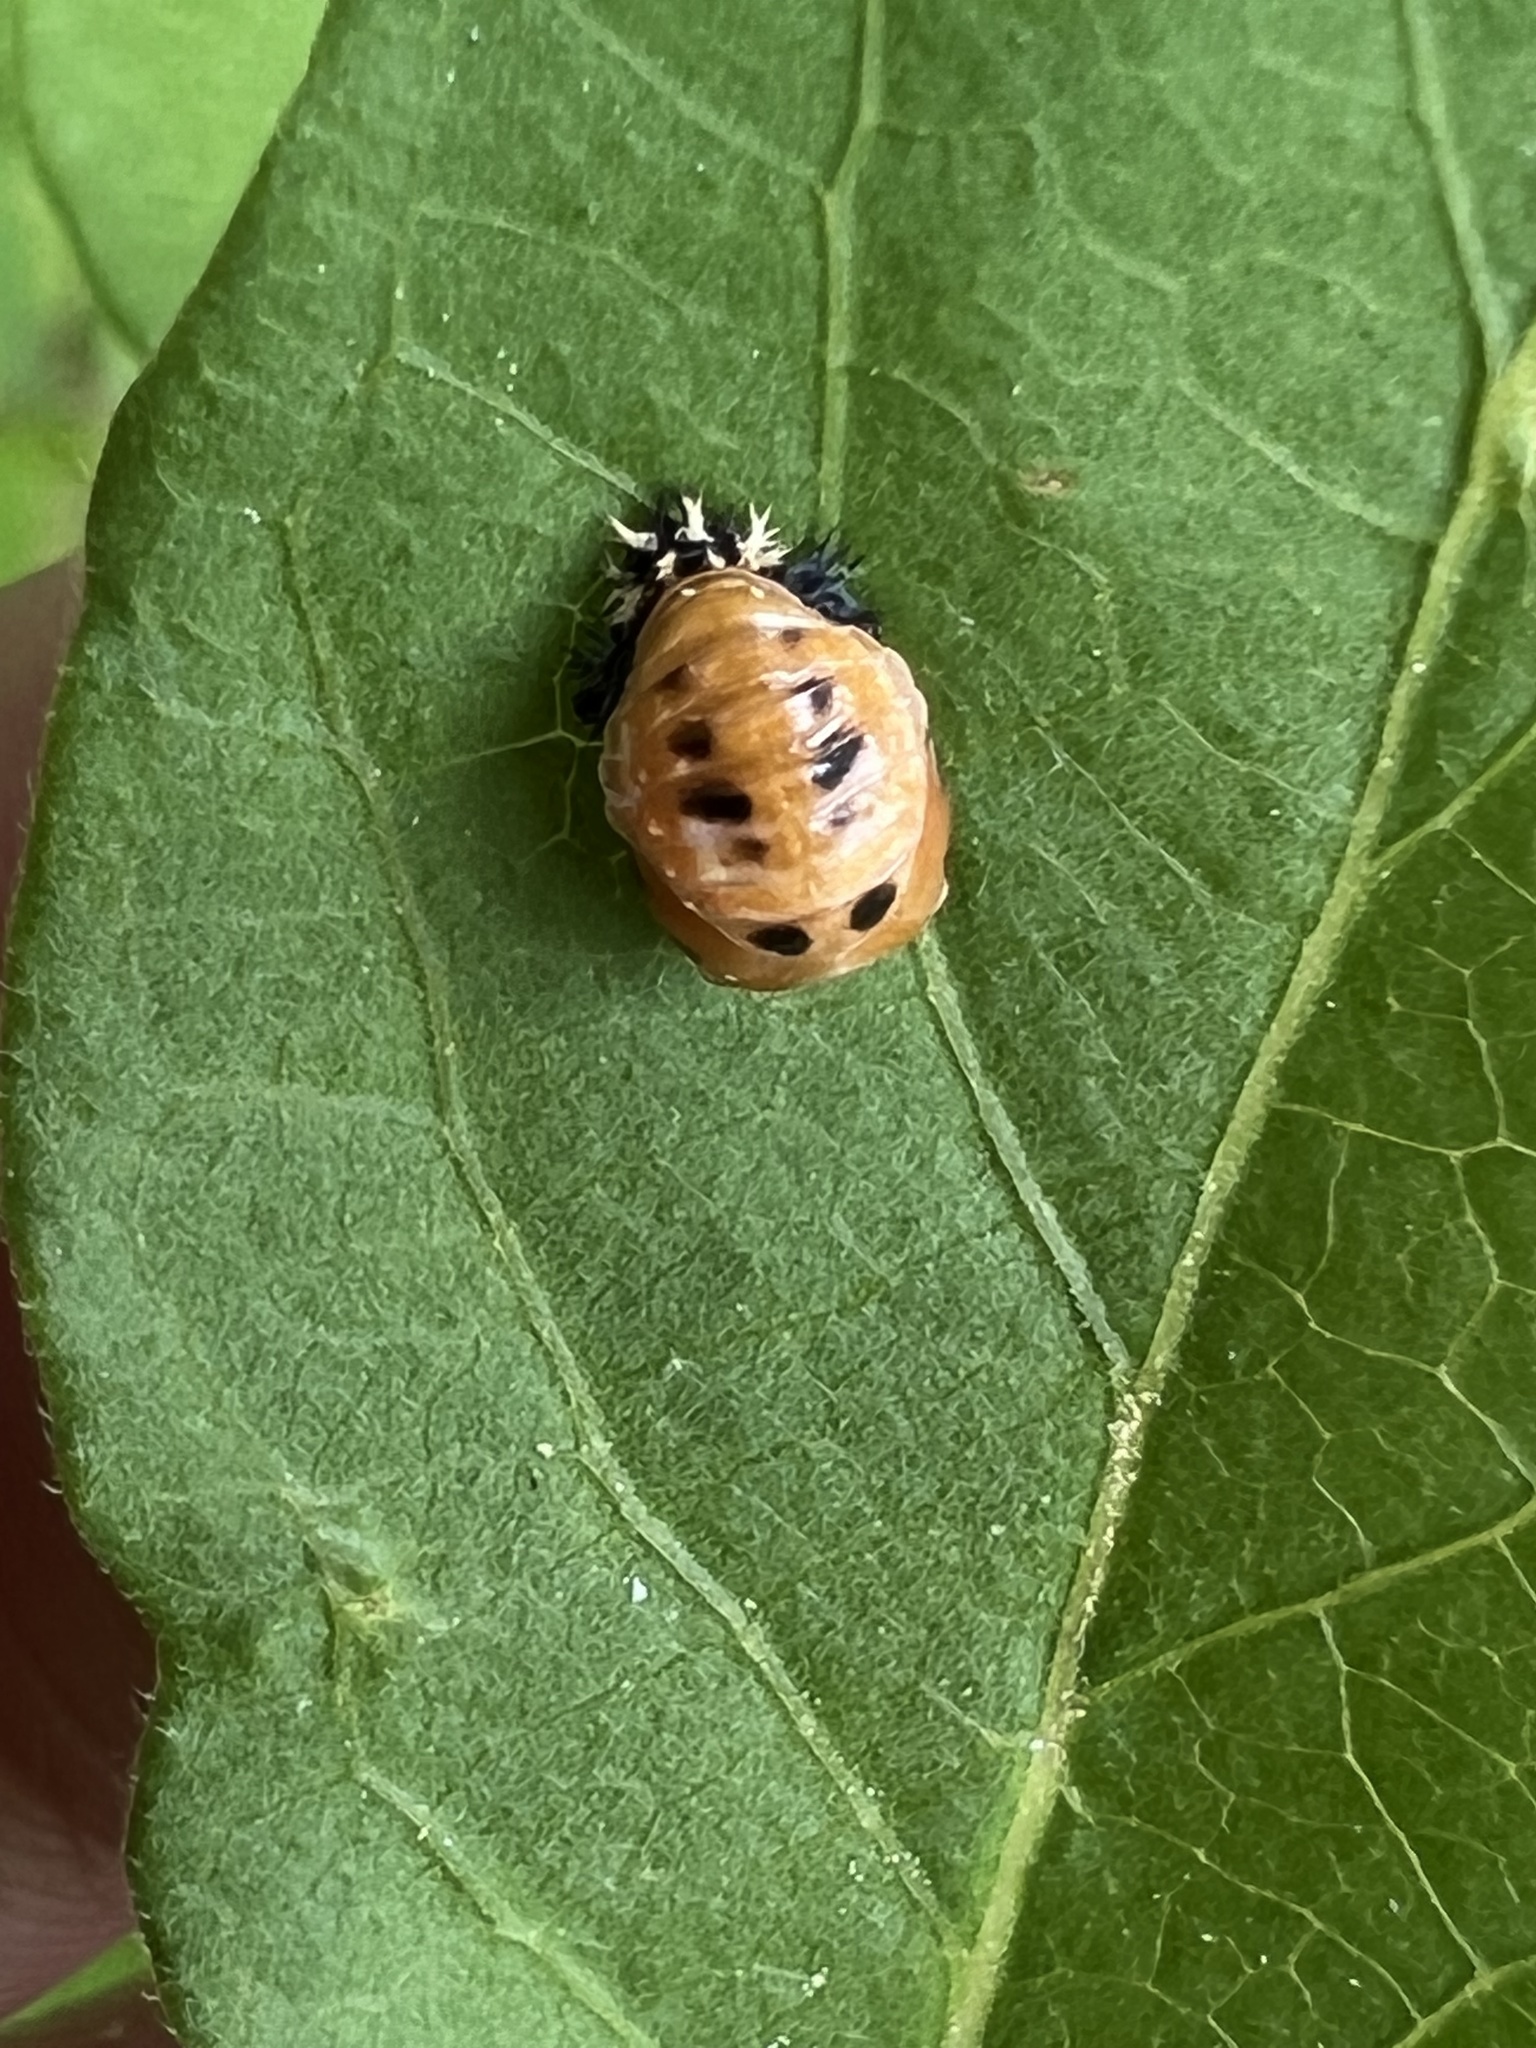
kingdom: Animalia
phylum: Arthropoda
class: Insecta
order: Coleoptera
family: Coccinellidae
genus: Harmonia
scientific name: Harmonia axyridis
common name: Harlequin ladybird
